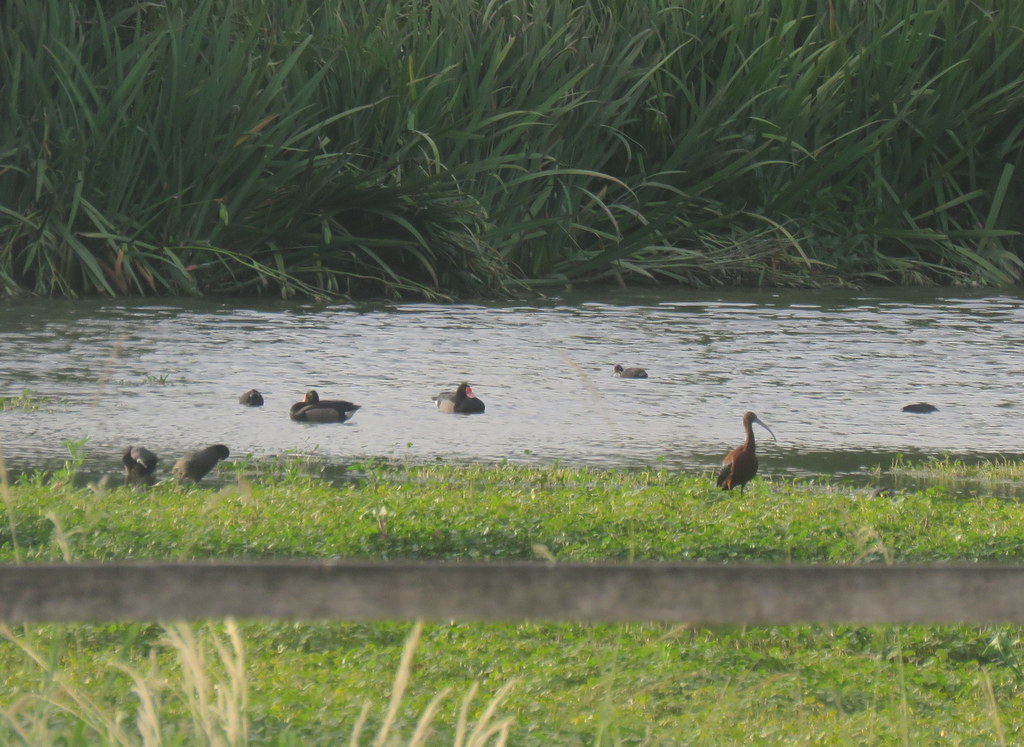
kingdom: Animalia
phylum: Chordata
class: Aves
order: Pelecaniformes
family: Threskiornithidae
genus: Plegadis
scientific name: Plegadis chihi
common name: White-faced ibis
